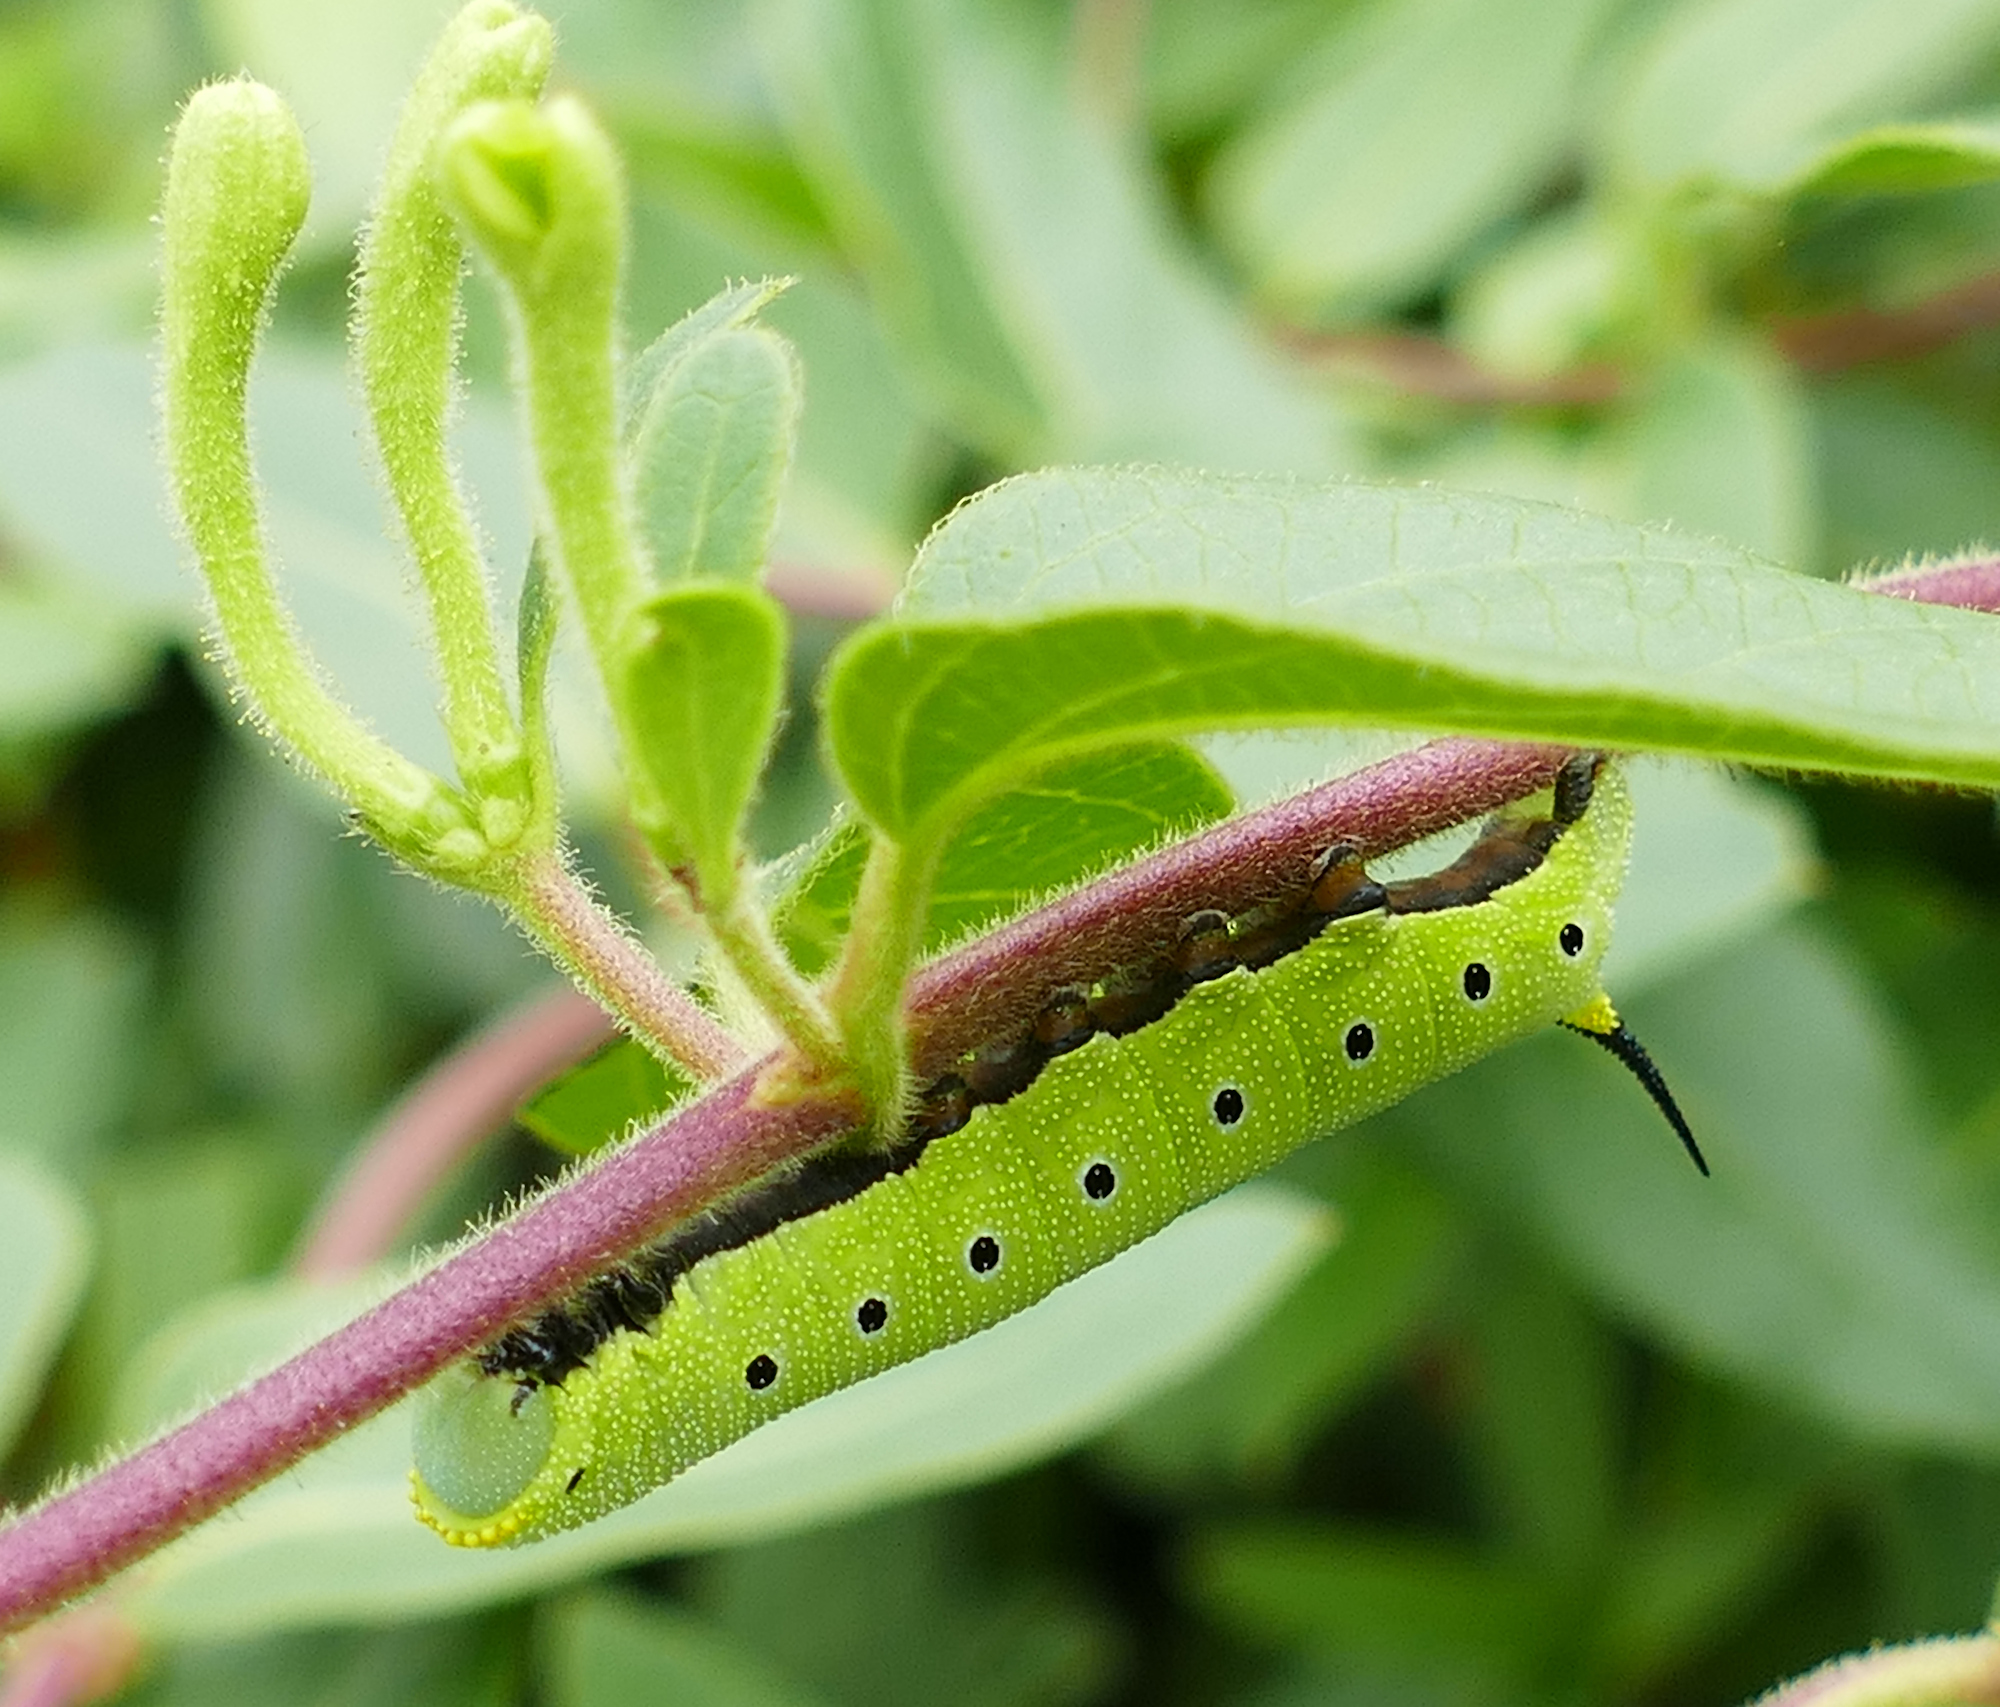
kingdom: Animalia
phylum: Arthropoda
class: Insecta
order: Lepidoptera
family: Sphingidae
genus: Hemaris
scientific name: Hemaris diffinis
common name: Bumblebee moth
